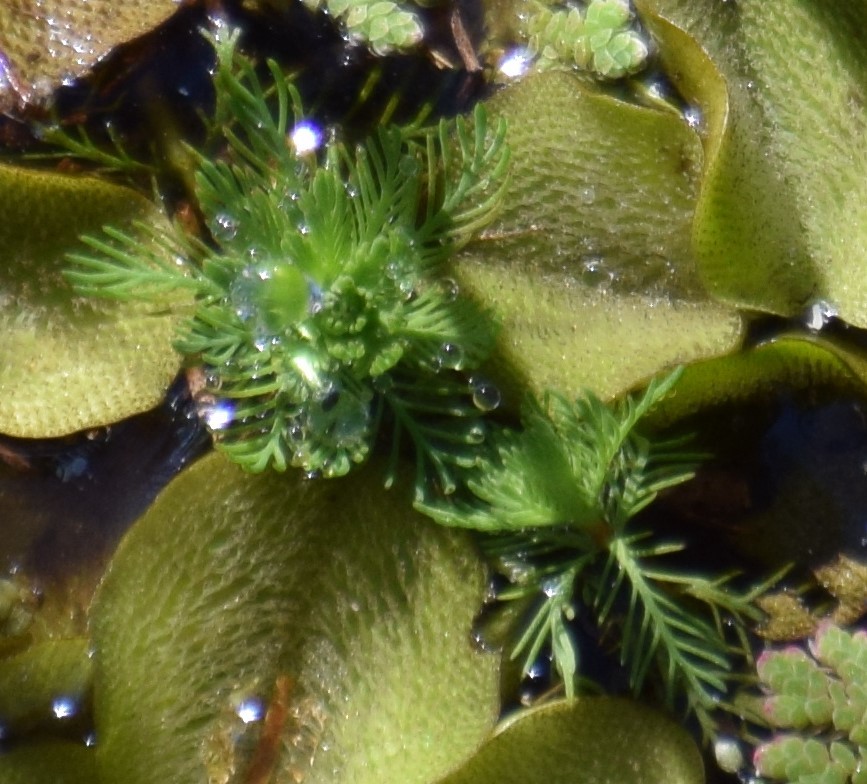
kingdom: Plantae
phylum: Tracheophyta
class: Magnoliopsida
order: Saxifragales
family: Haloragaceae
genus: Myriophyllum
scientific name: Myriophyllum aquaticum
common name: Parrot's feather
